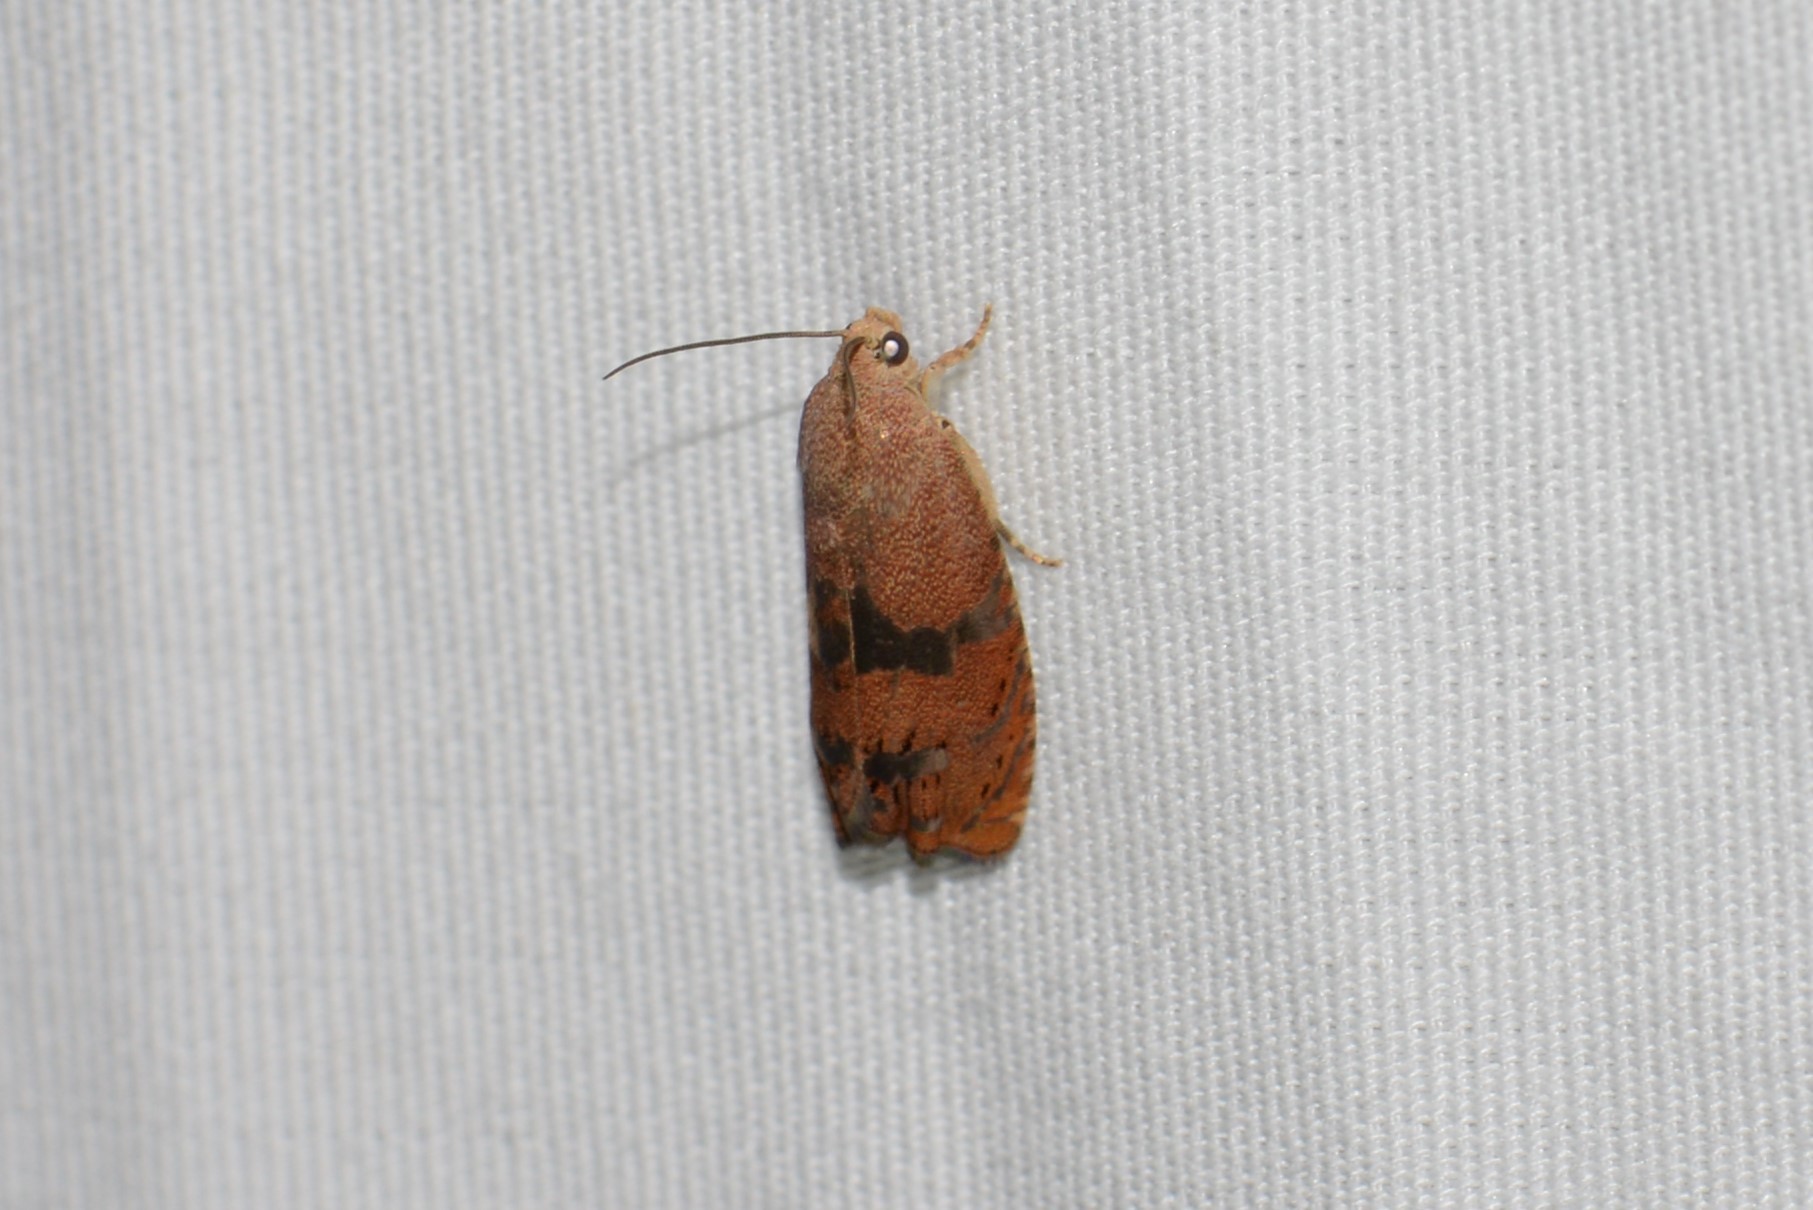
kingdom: Animalia
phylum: Arthropoda
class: Insecta
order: Lepidoptera
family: Tortricidae
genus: Cydia
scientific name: Cydia latiferreana
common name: Filbertworm moth
